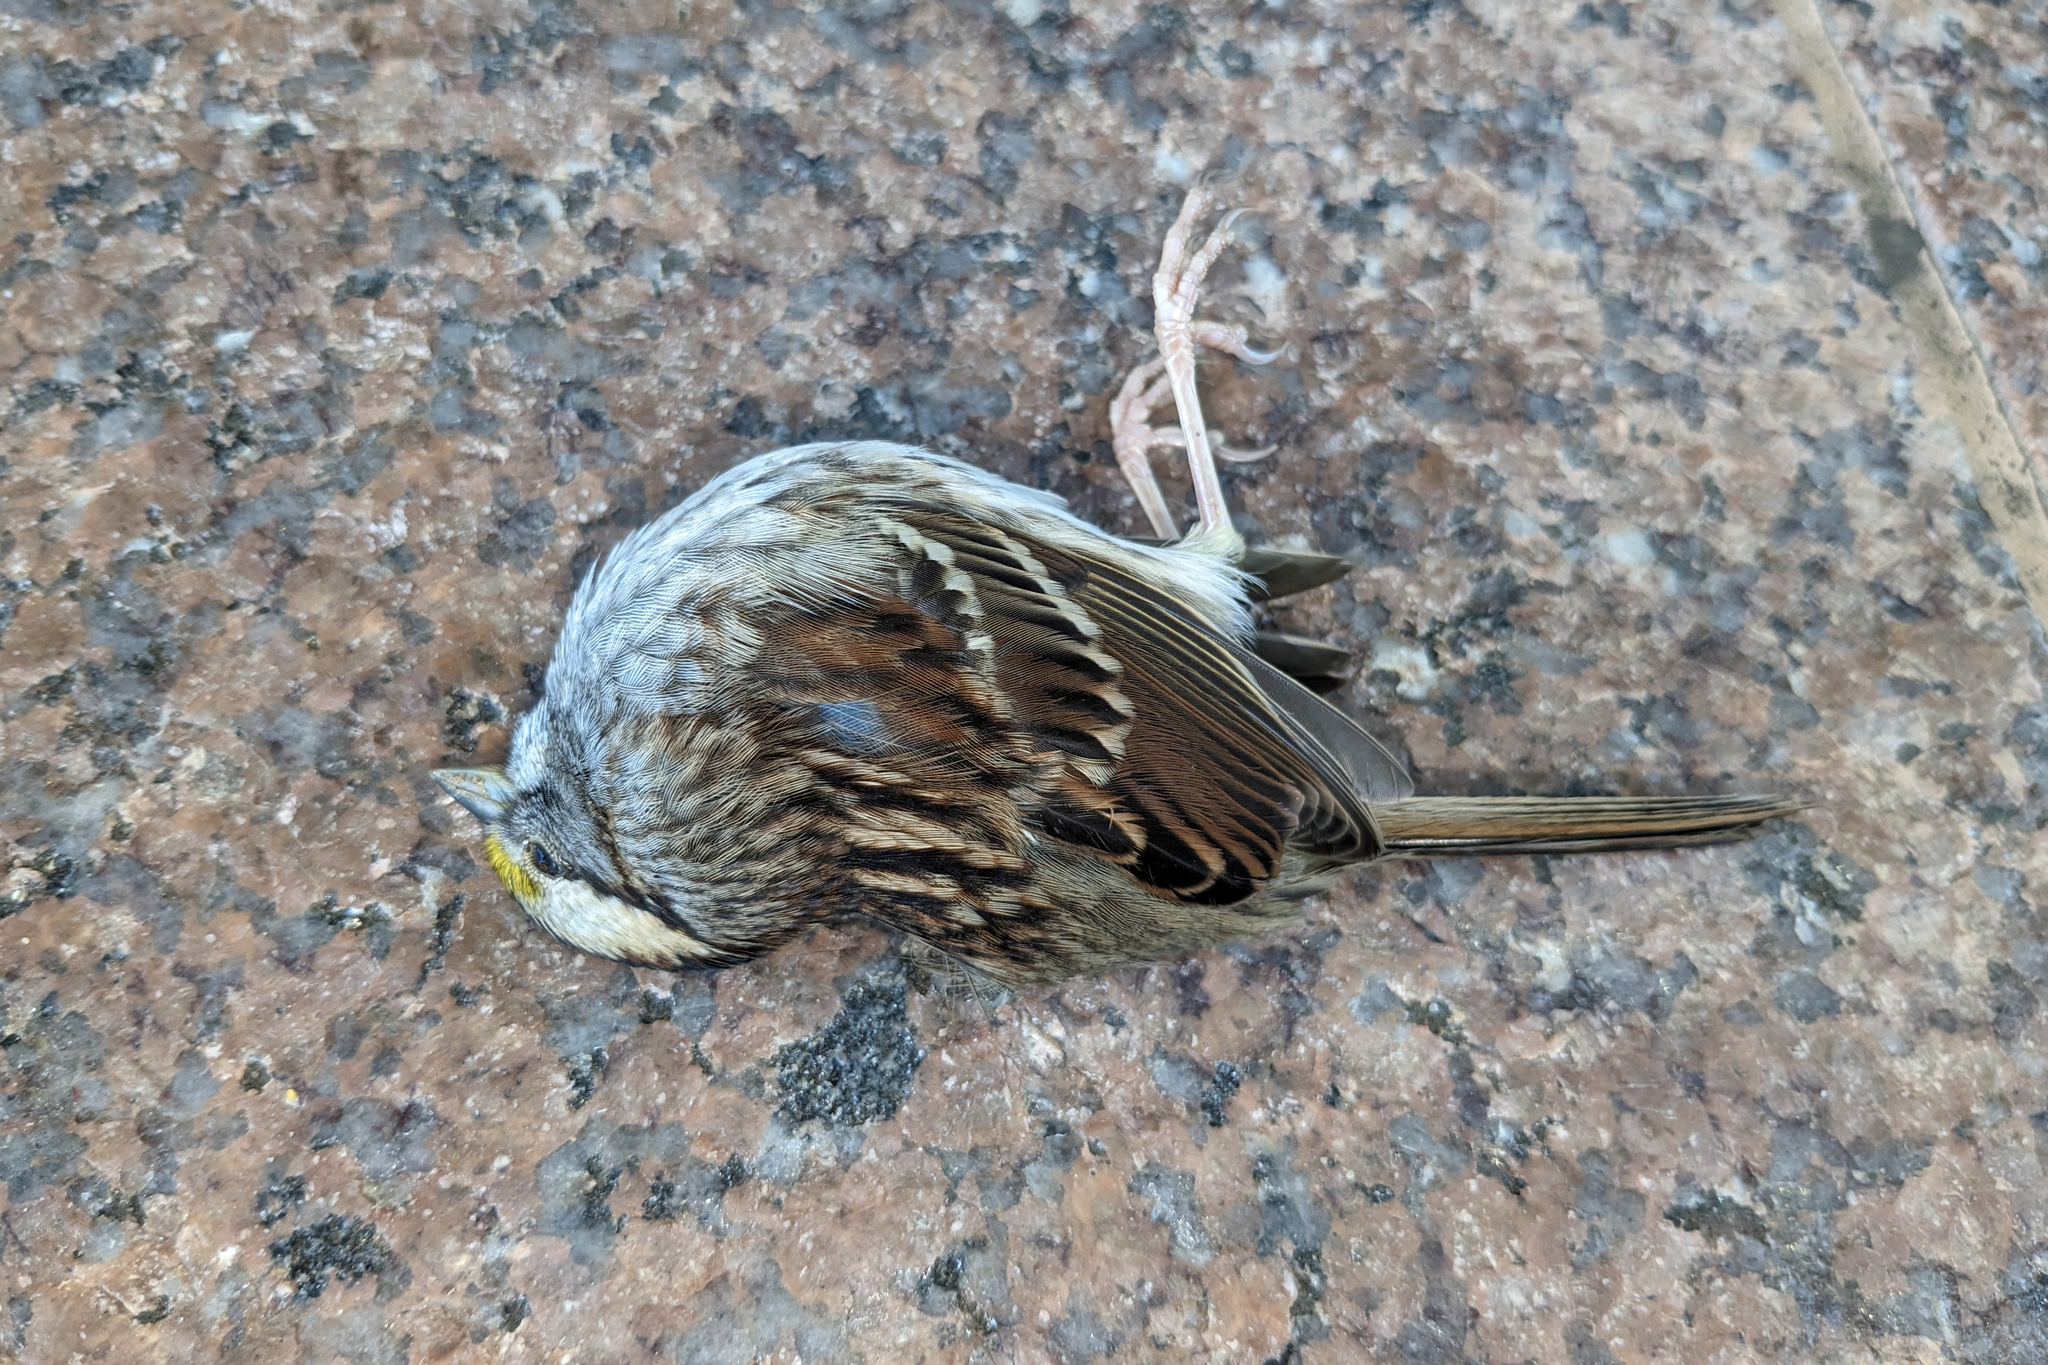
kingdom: Animalia
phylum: Chordata
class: Aves
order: Passeriformes
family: Passerellidae
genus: Zonotrichia
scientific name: Zonotrichia albicollis
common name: White-throated sparrow
